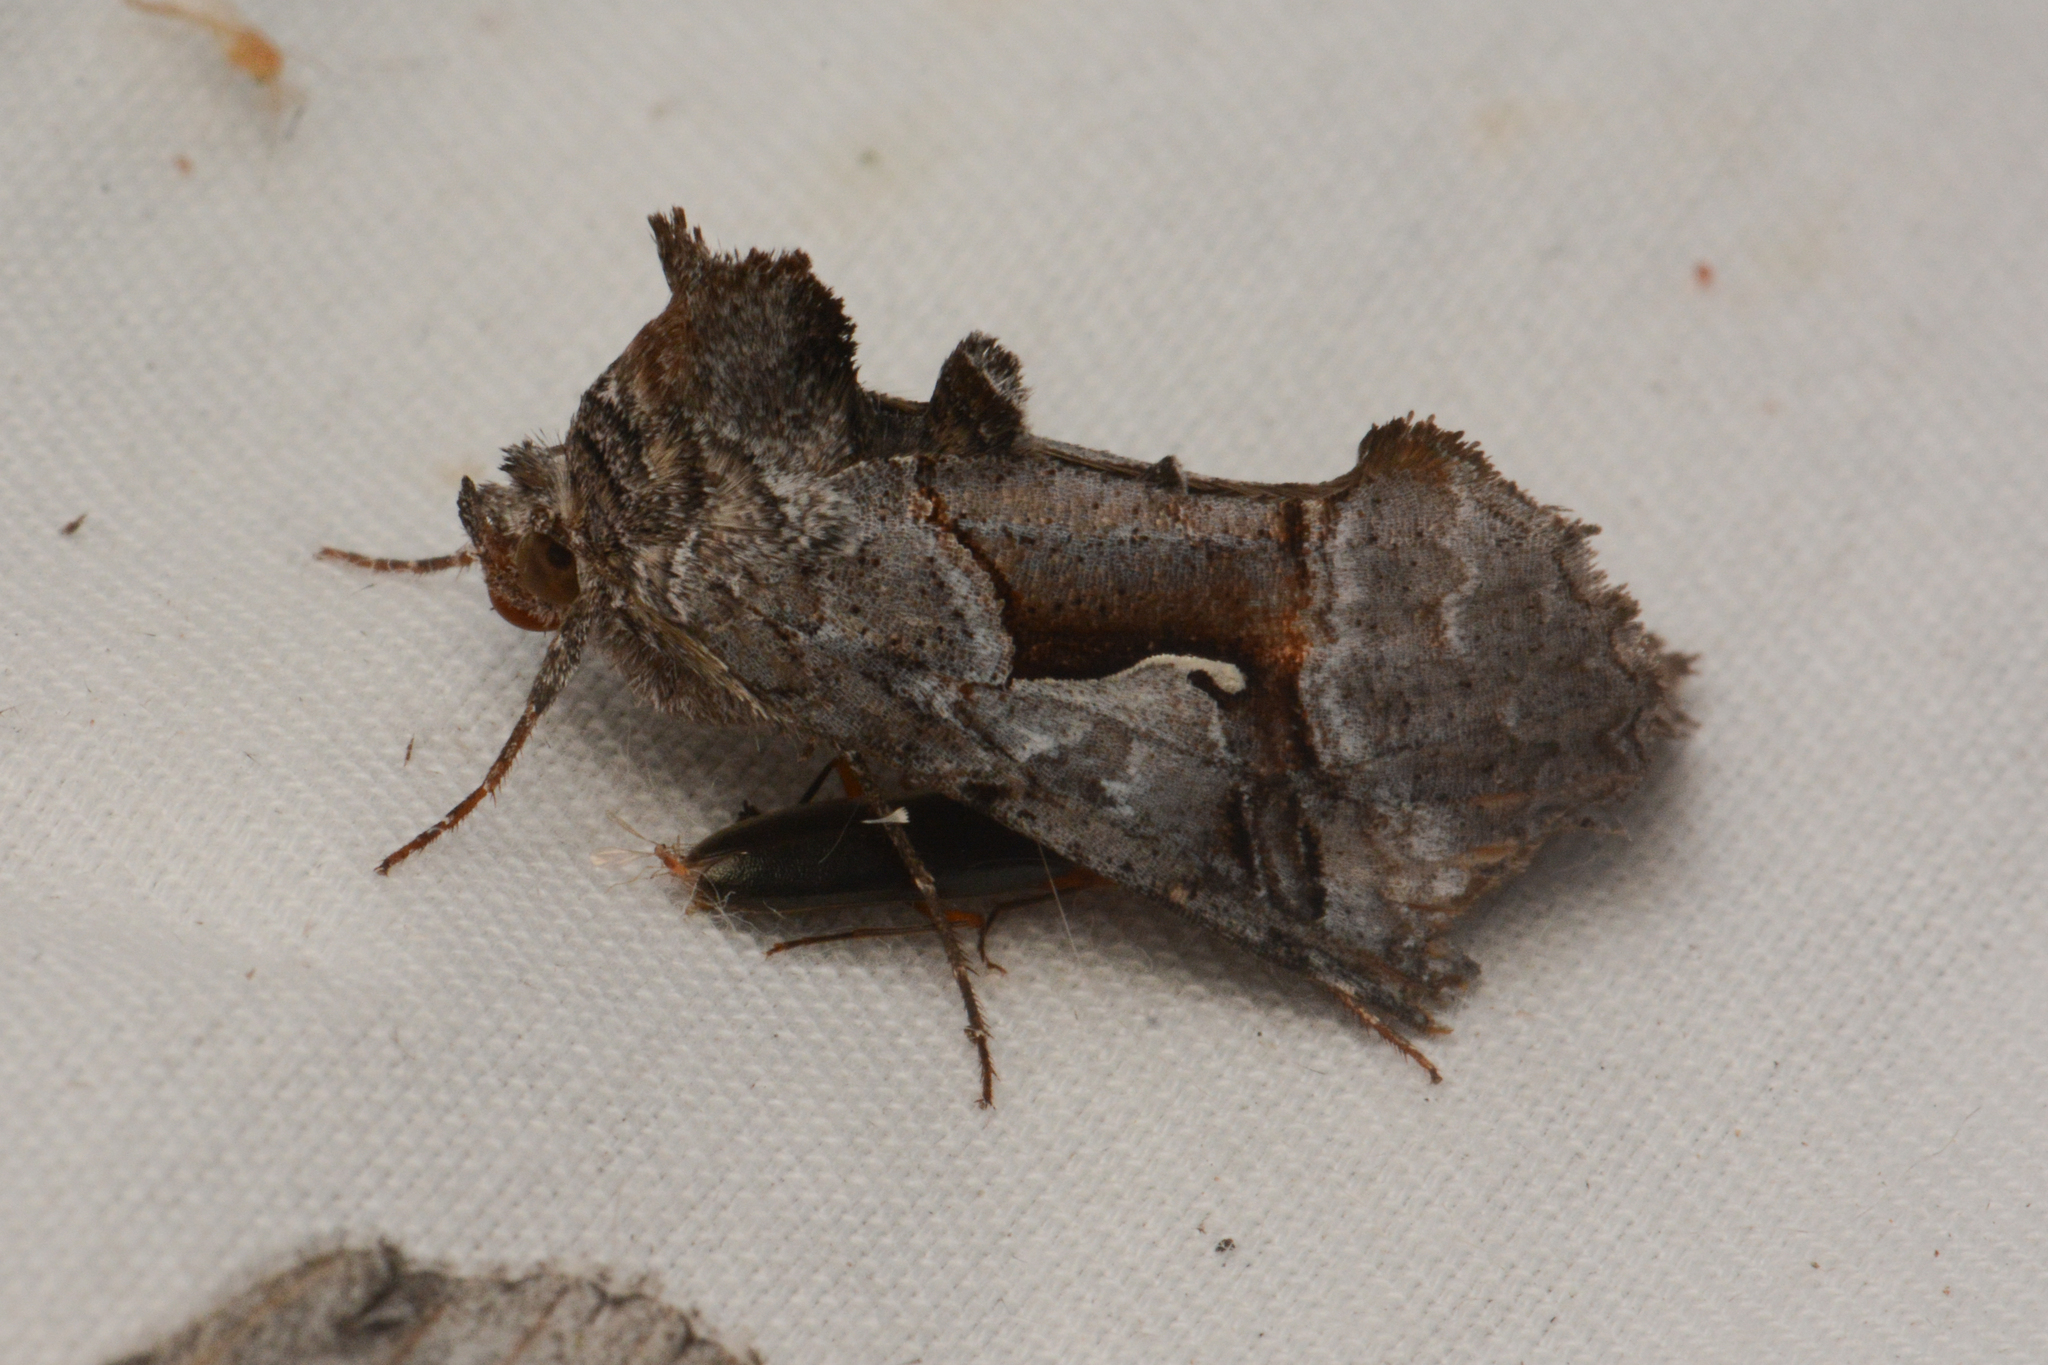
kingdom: Animalia
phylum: Arthropoda
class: Insecta
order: Lepidoptera
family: Noctuidae
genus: Syngrapha
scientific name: Syngrapha epigaea
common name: Epigaea looper moth
